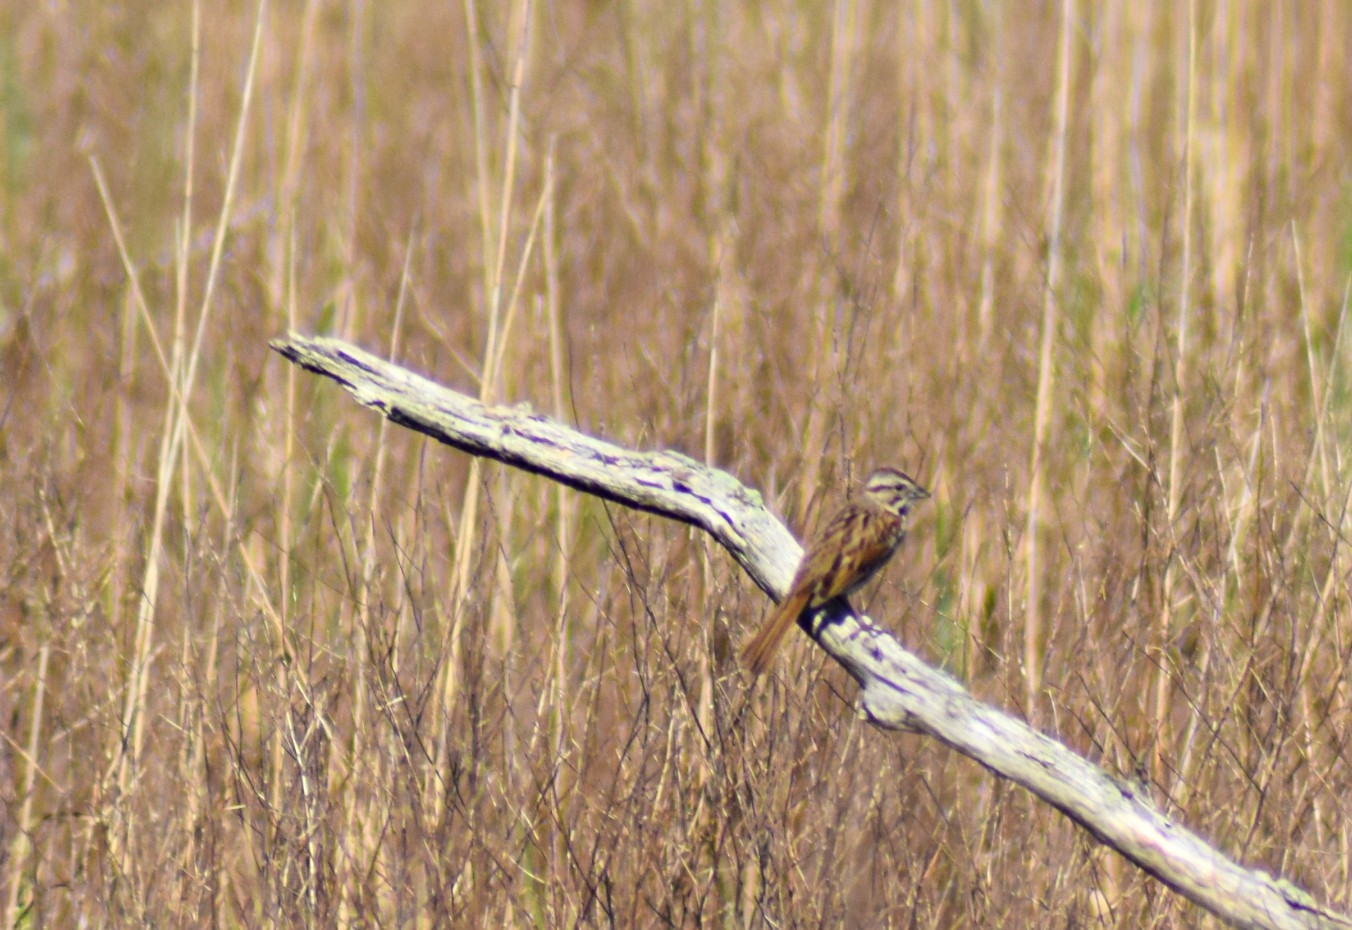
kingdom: Animalia
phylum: Chordata
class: Aves
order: Passeriformes
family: Passerellidae
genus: Melospiza
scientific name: Melospiza melodia
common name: Song sparrow
